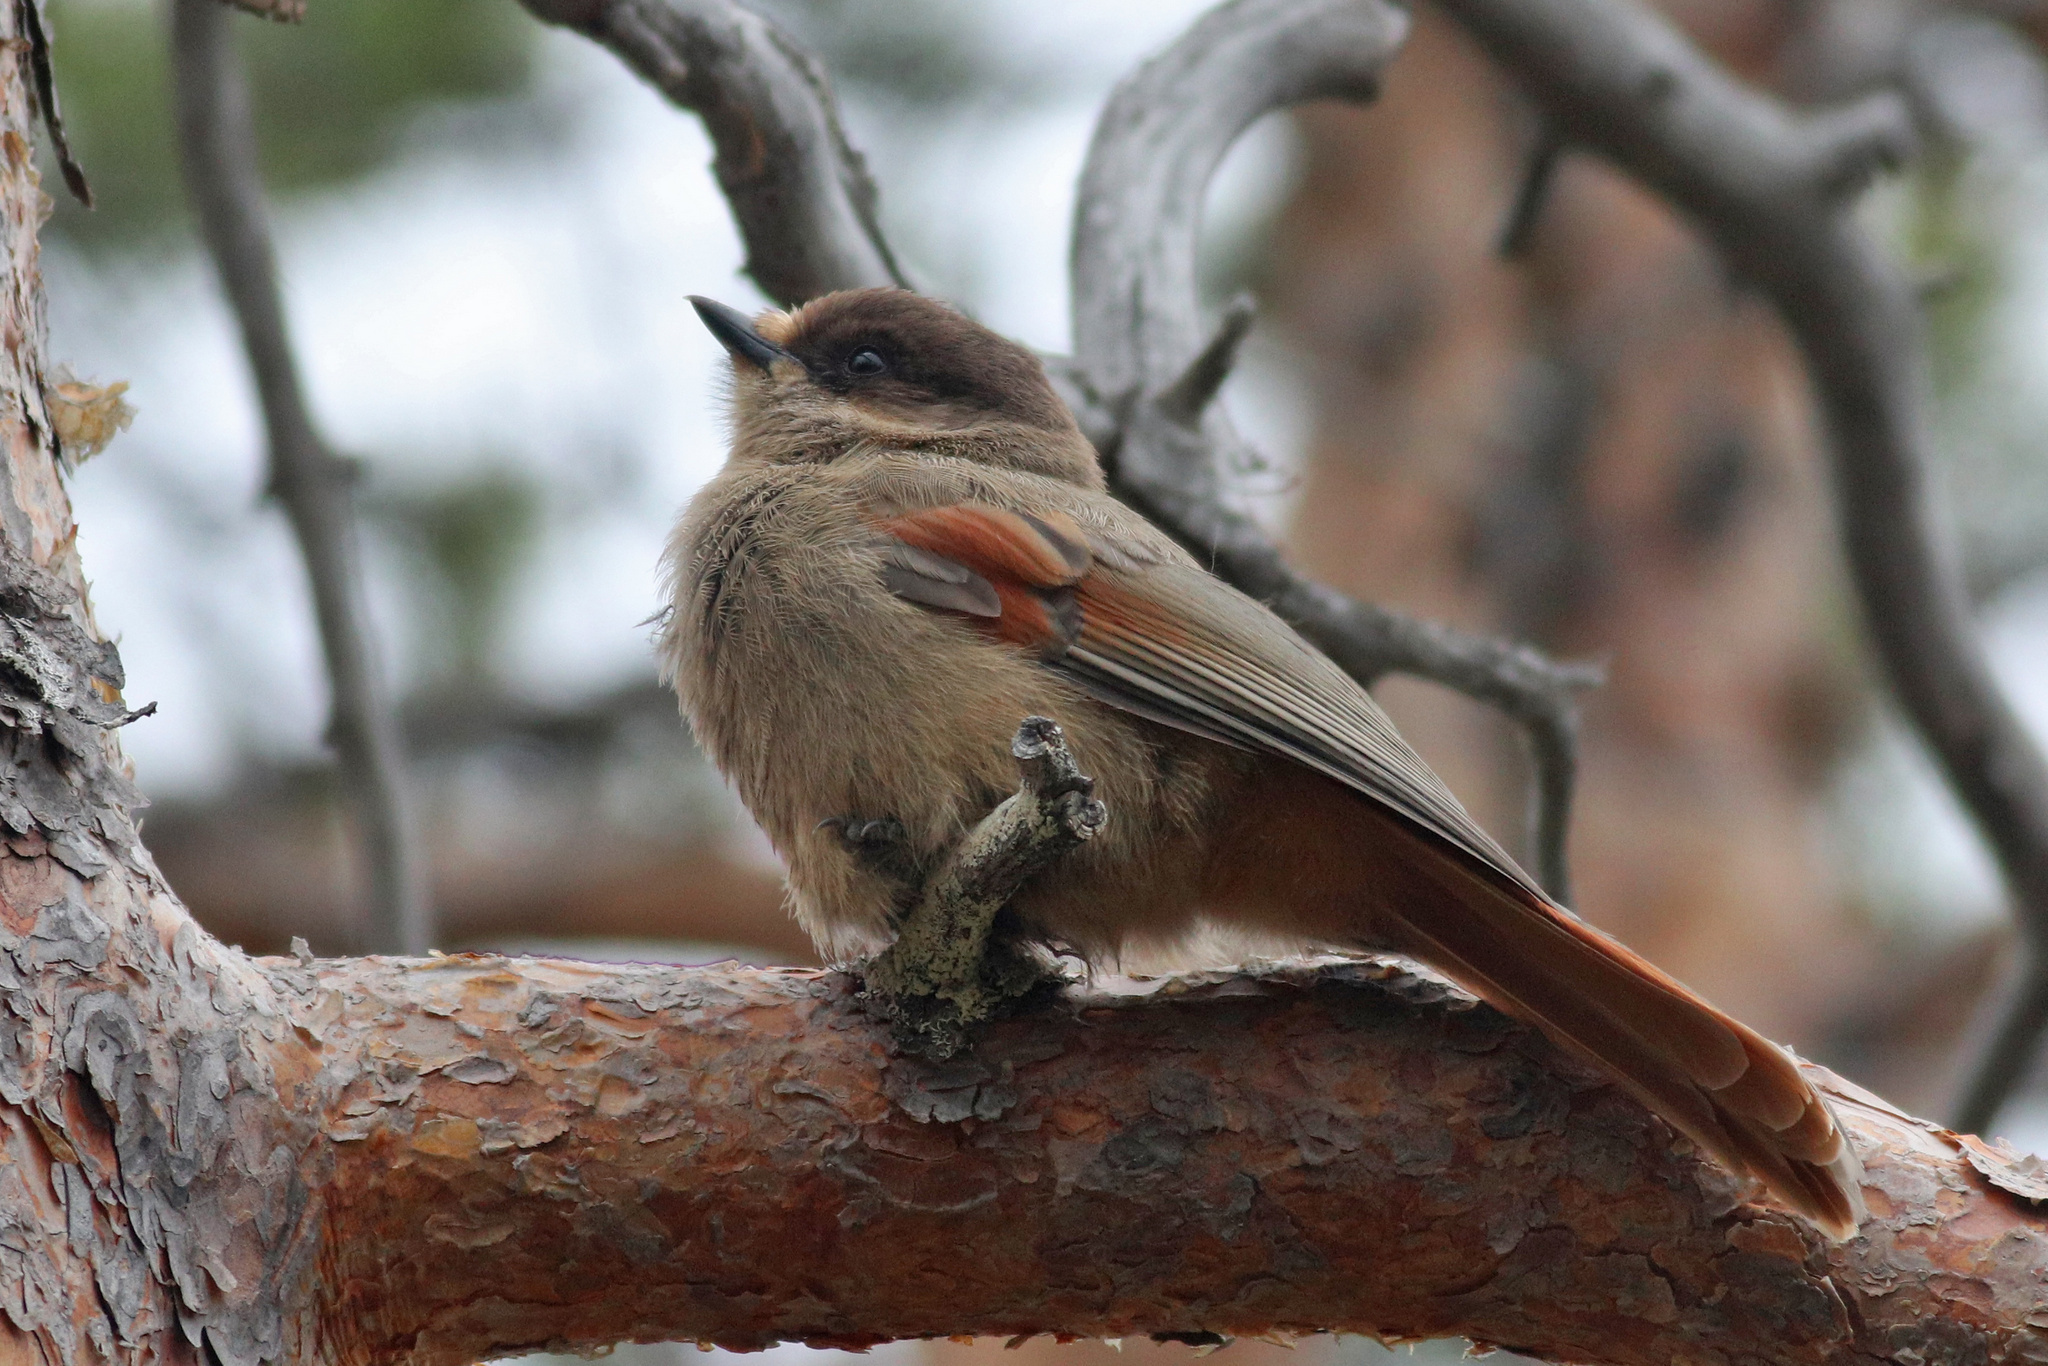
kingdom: Animalia
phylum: Chordata
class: Aves
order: Passeriformes
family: Corvidae
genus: Perisoreus
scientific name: Perisoreus infaustus
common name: Siberian jay
